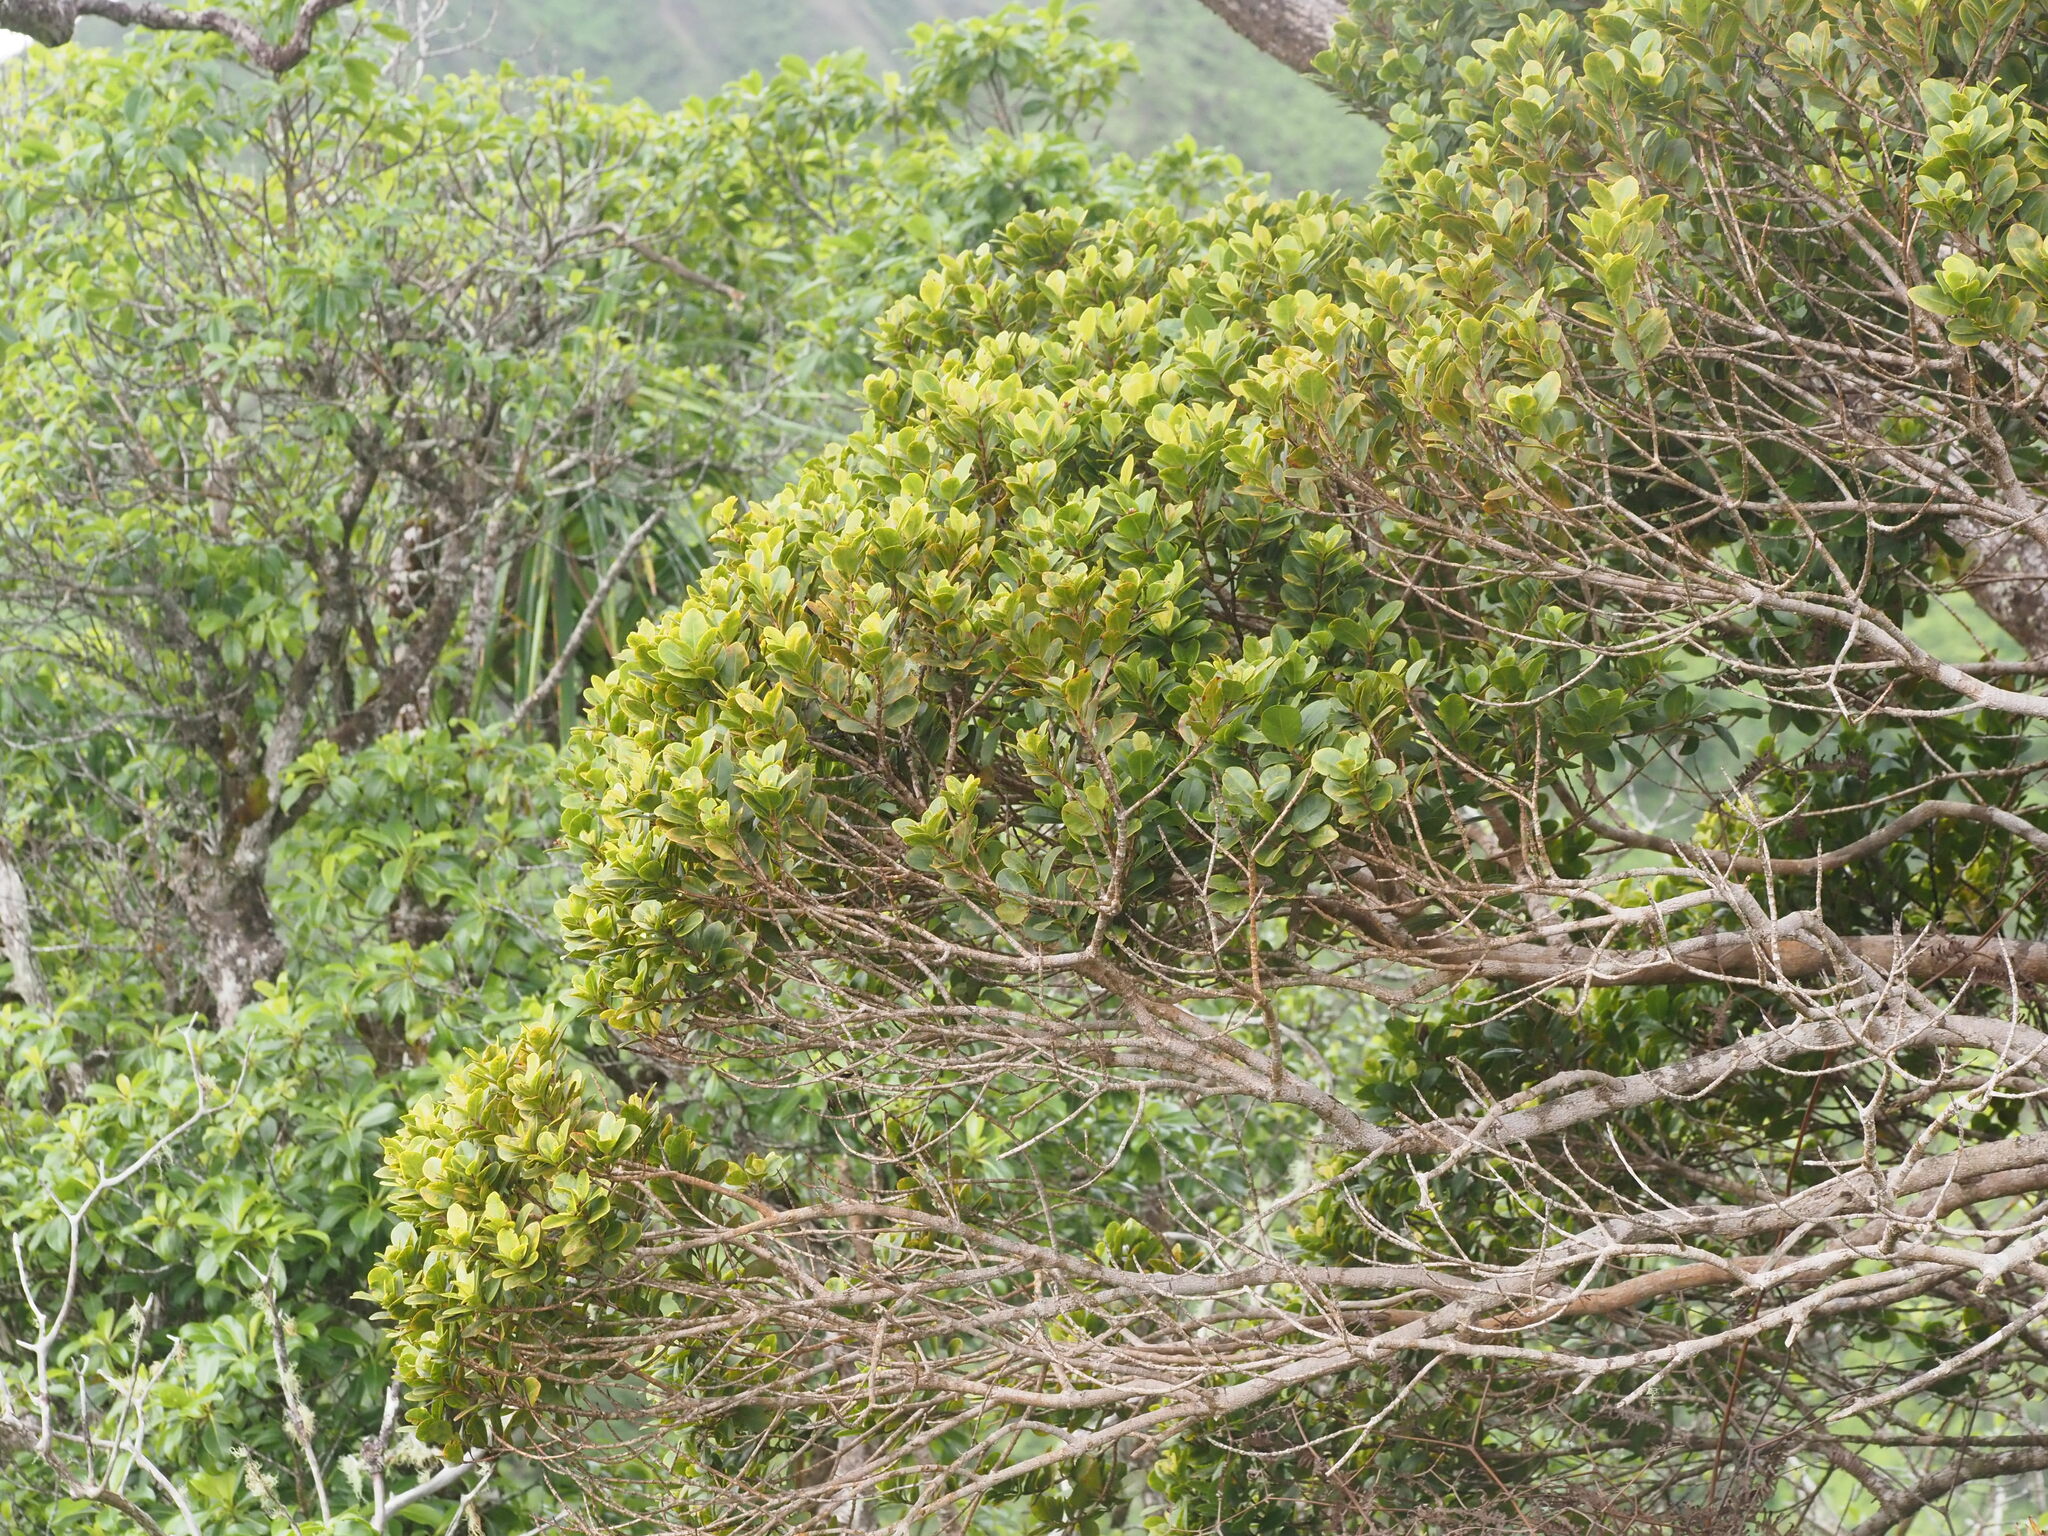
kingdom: Plantae
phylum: Tracheophyta
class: Magnoliopsida
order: Myrtales
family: Myrtaceae
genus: Syzygium
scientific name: Syzygium sandwicense
